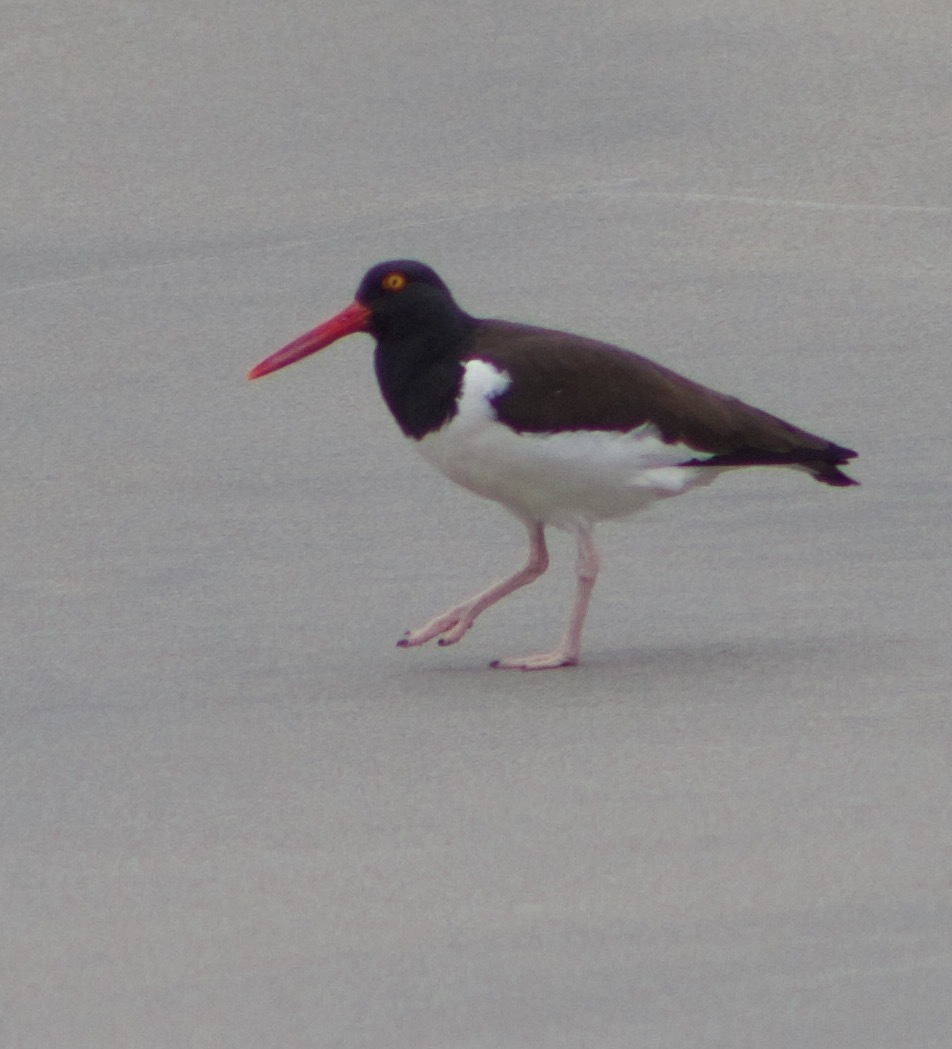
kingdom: Animalia
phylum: Chordata
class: Aves
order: Charadriiformes
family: Haematopodidae
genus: Haematopus
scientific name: Haematopus palliatus
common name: American oystercatcher
